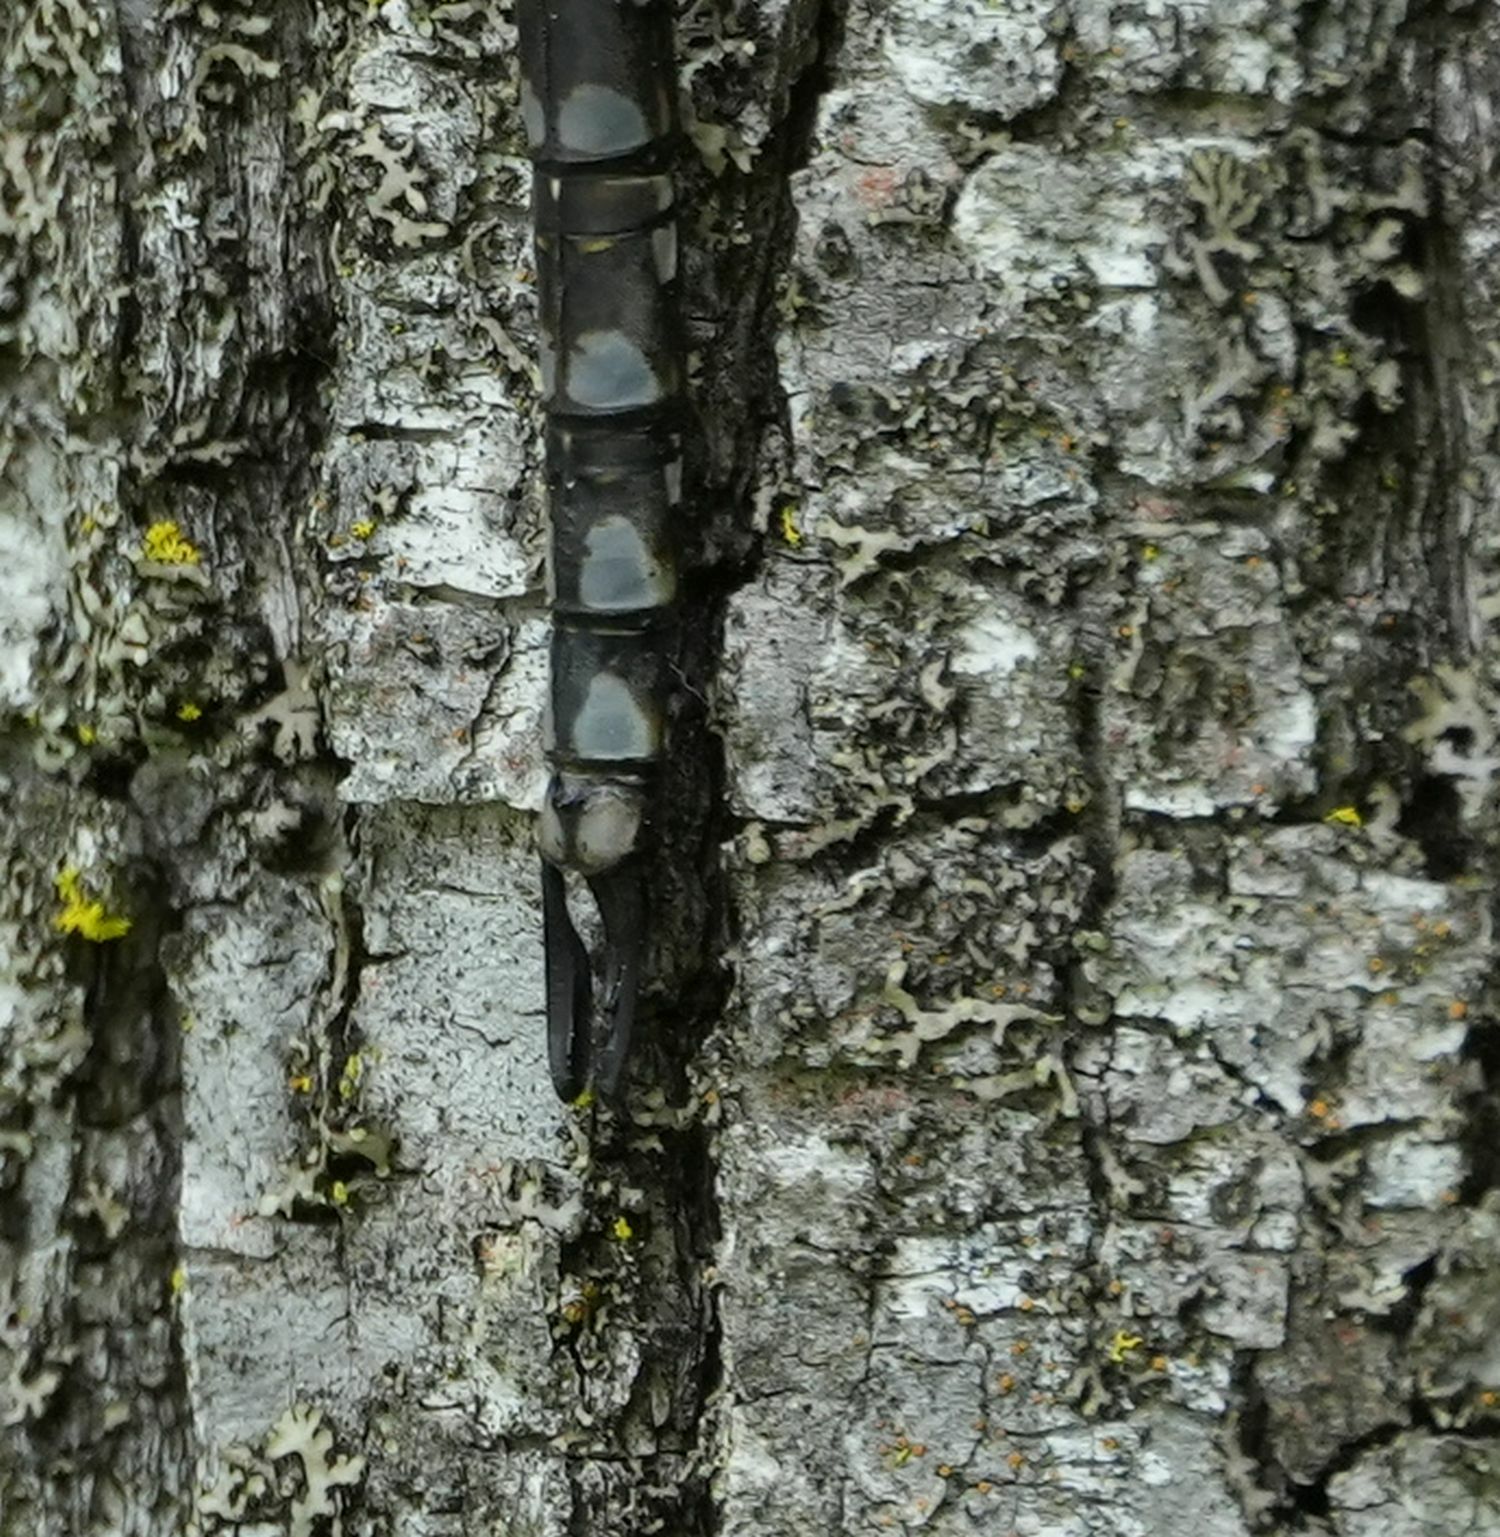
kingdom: Animalia
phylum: Arthropoda
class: Insecta
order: Odonata
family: Aeshnidae
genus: Aeshna
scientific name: Aeshna canadensis
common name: Canada darner
